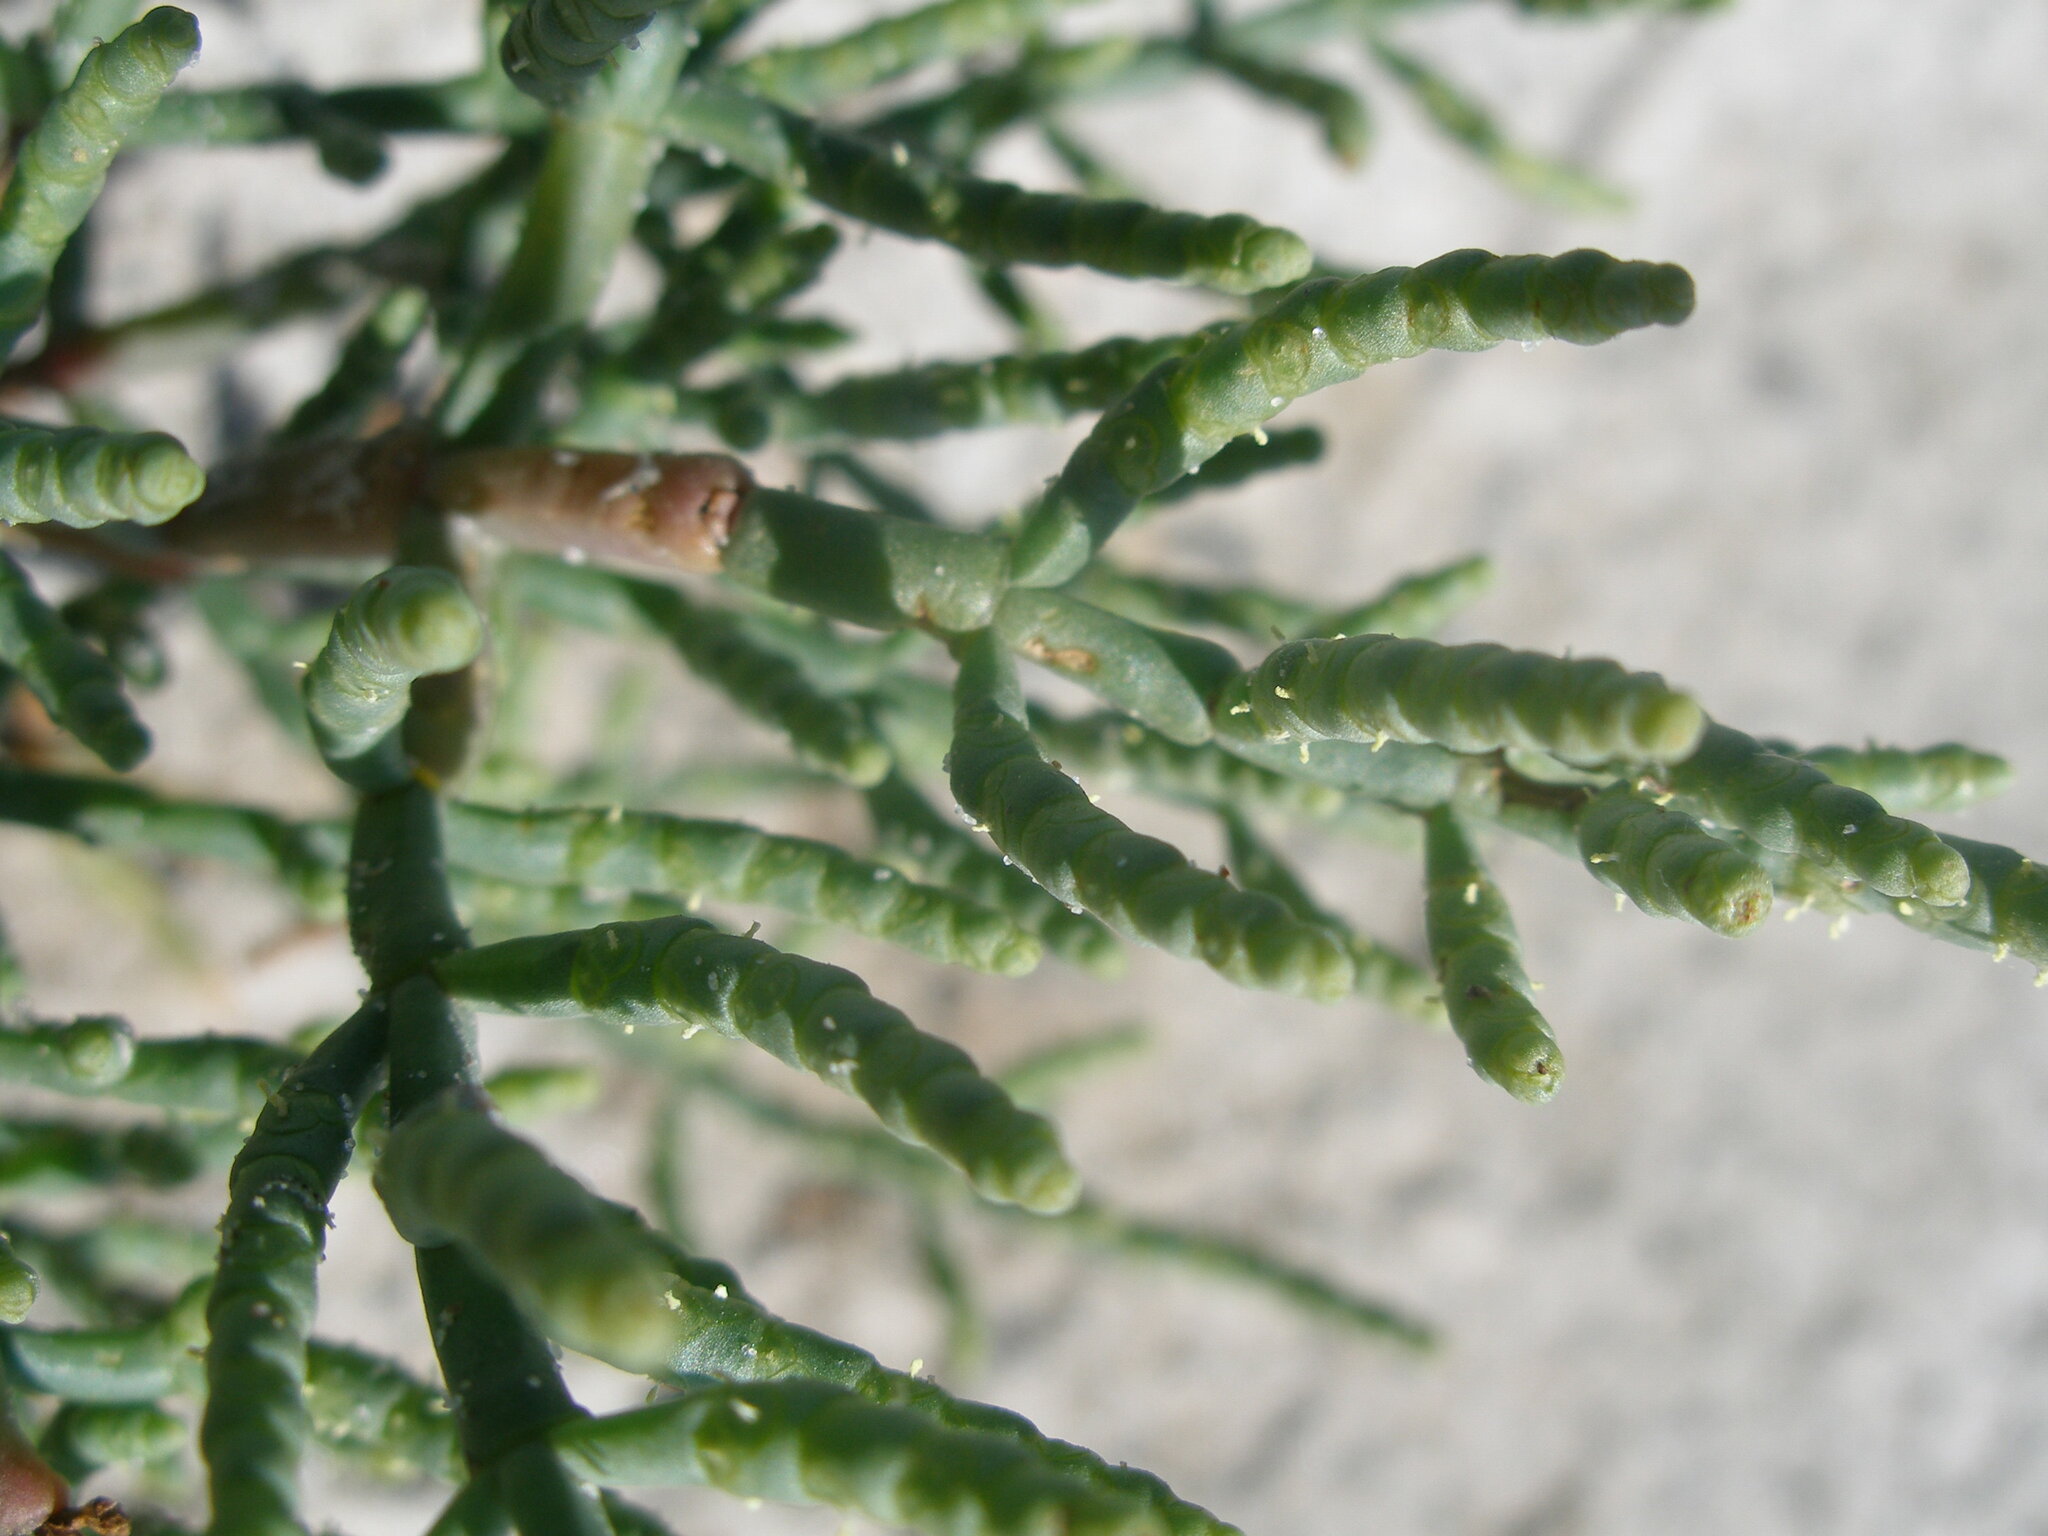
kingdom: Plantae
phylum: Tracheophyta
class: Magnoliopsida
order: Caryophyllales
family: Amaranthaceae
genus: Salicornia
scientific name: Salicornia perennans
